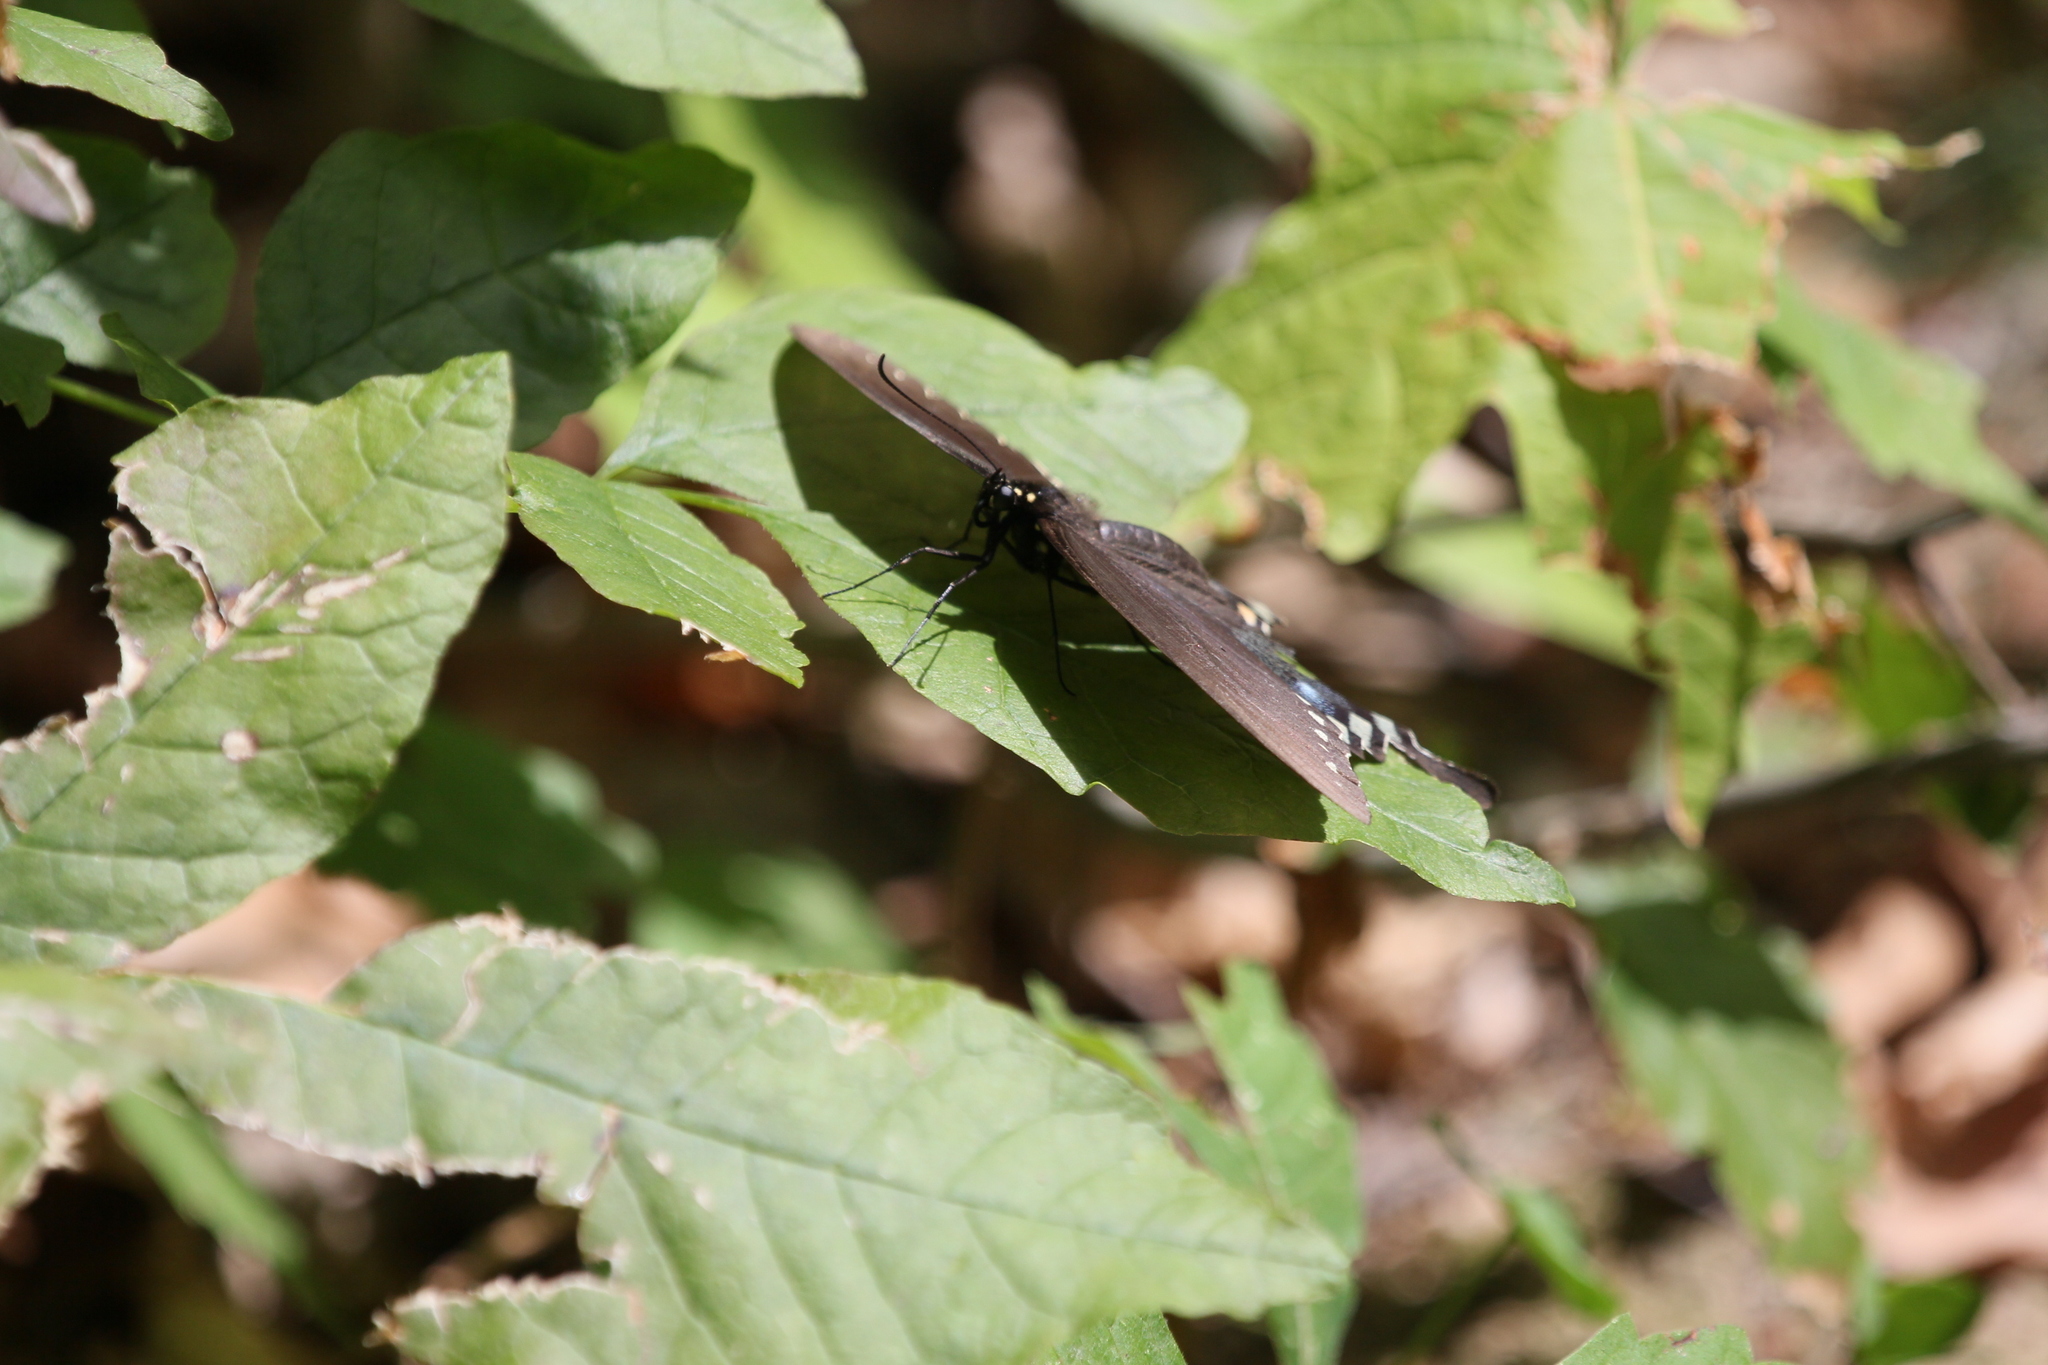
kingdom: Animalia
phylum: Arthropoda
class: Insecta
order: Lepidoptera
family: Papilionidae
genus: Papilio
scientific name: Papilio troilus
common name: Spicebush swallowtail
